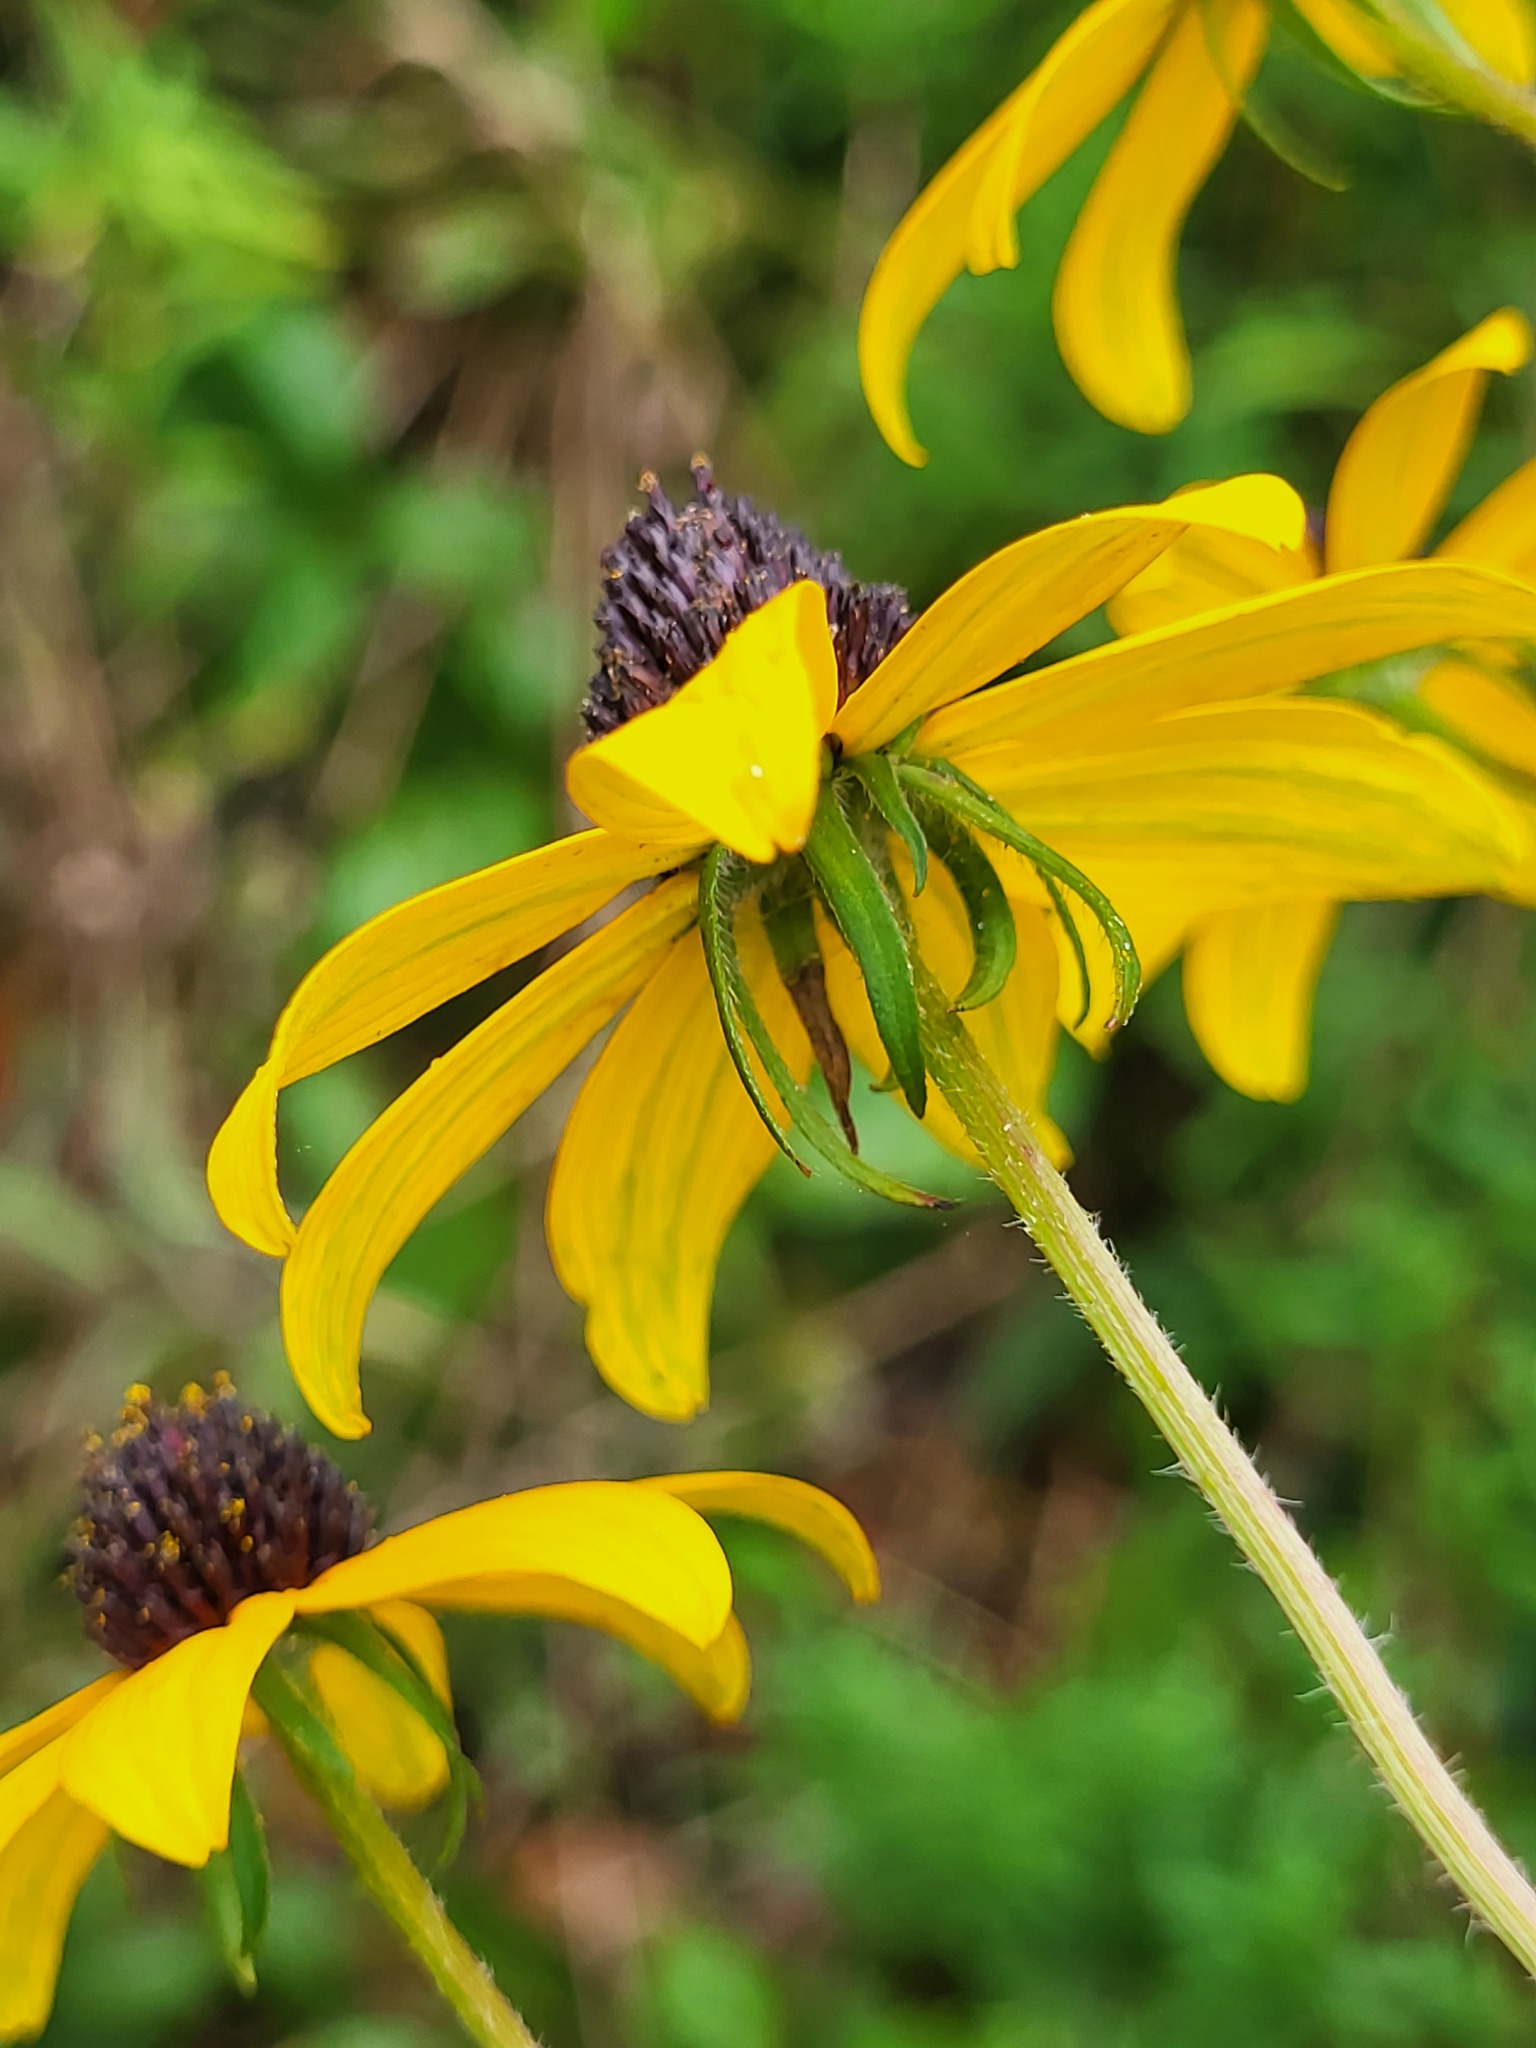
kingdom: Plantae
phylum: Tracheophyta
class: Magnoliopsida
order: Asterales
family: Asteraceae
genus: Rudbeckia
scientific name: Rudbeckia triloba
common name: Thin-leaved coneflower
